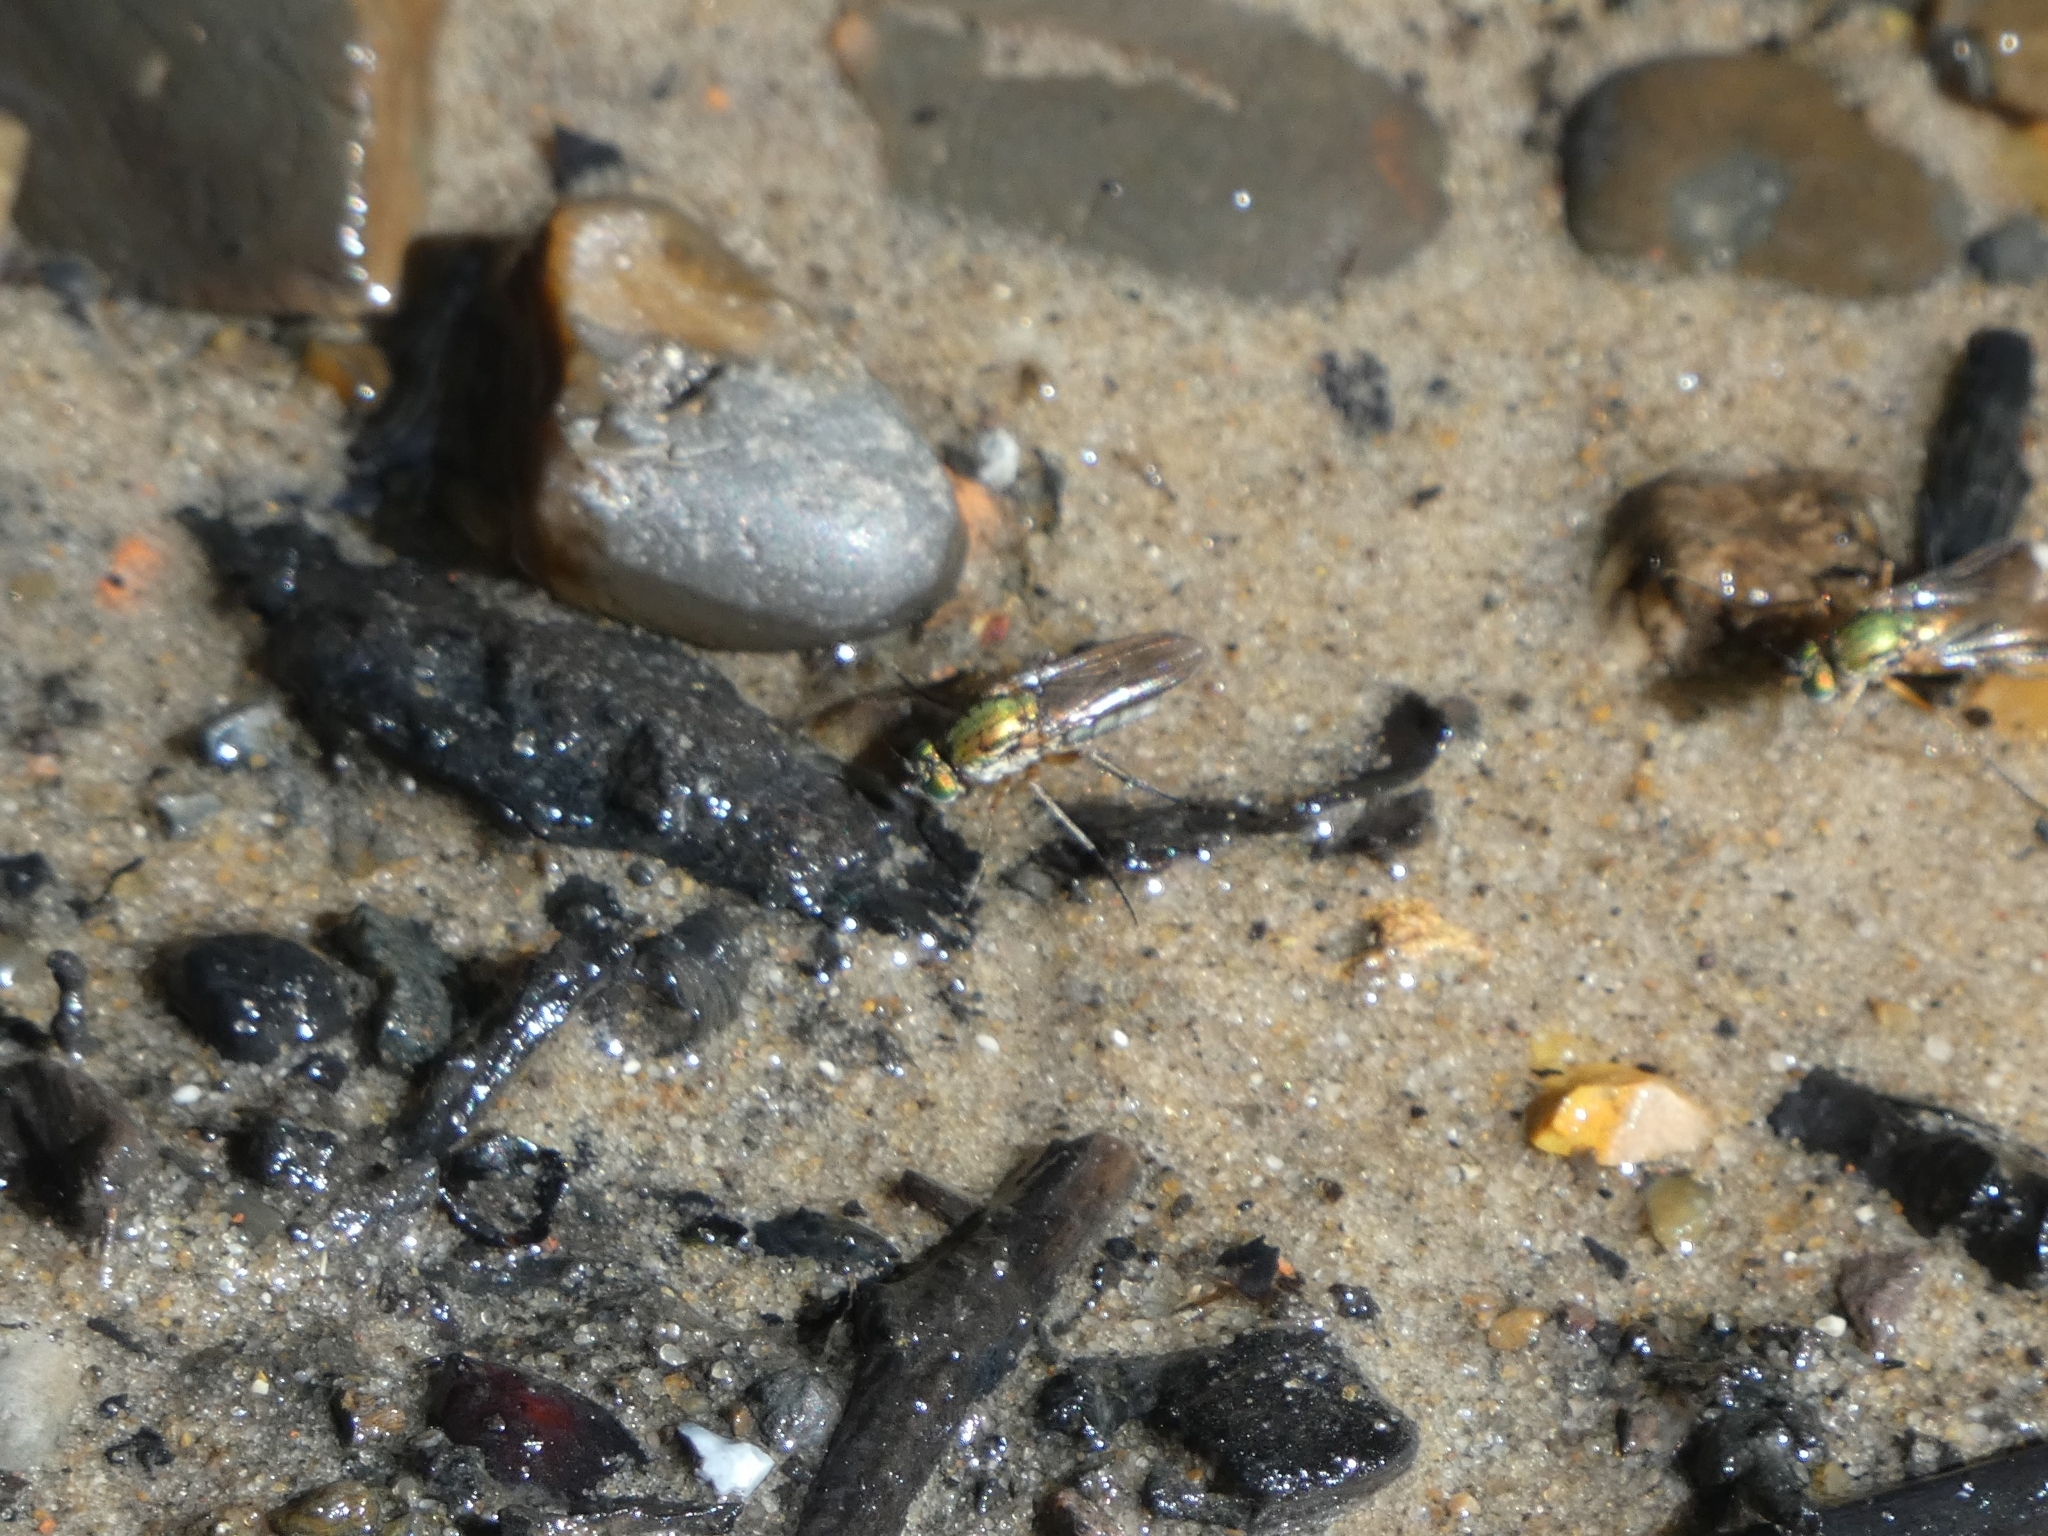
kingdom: Animalia
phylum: Arthropoda
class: Insecta
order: Diptera
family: Dolichopodidae
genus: Poecilobothrus
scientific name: Poecilobothrus nobilitatus
